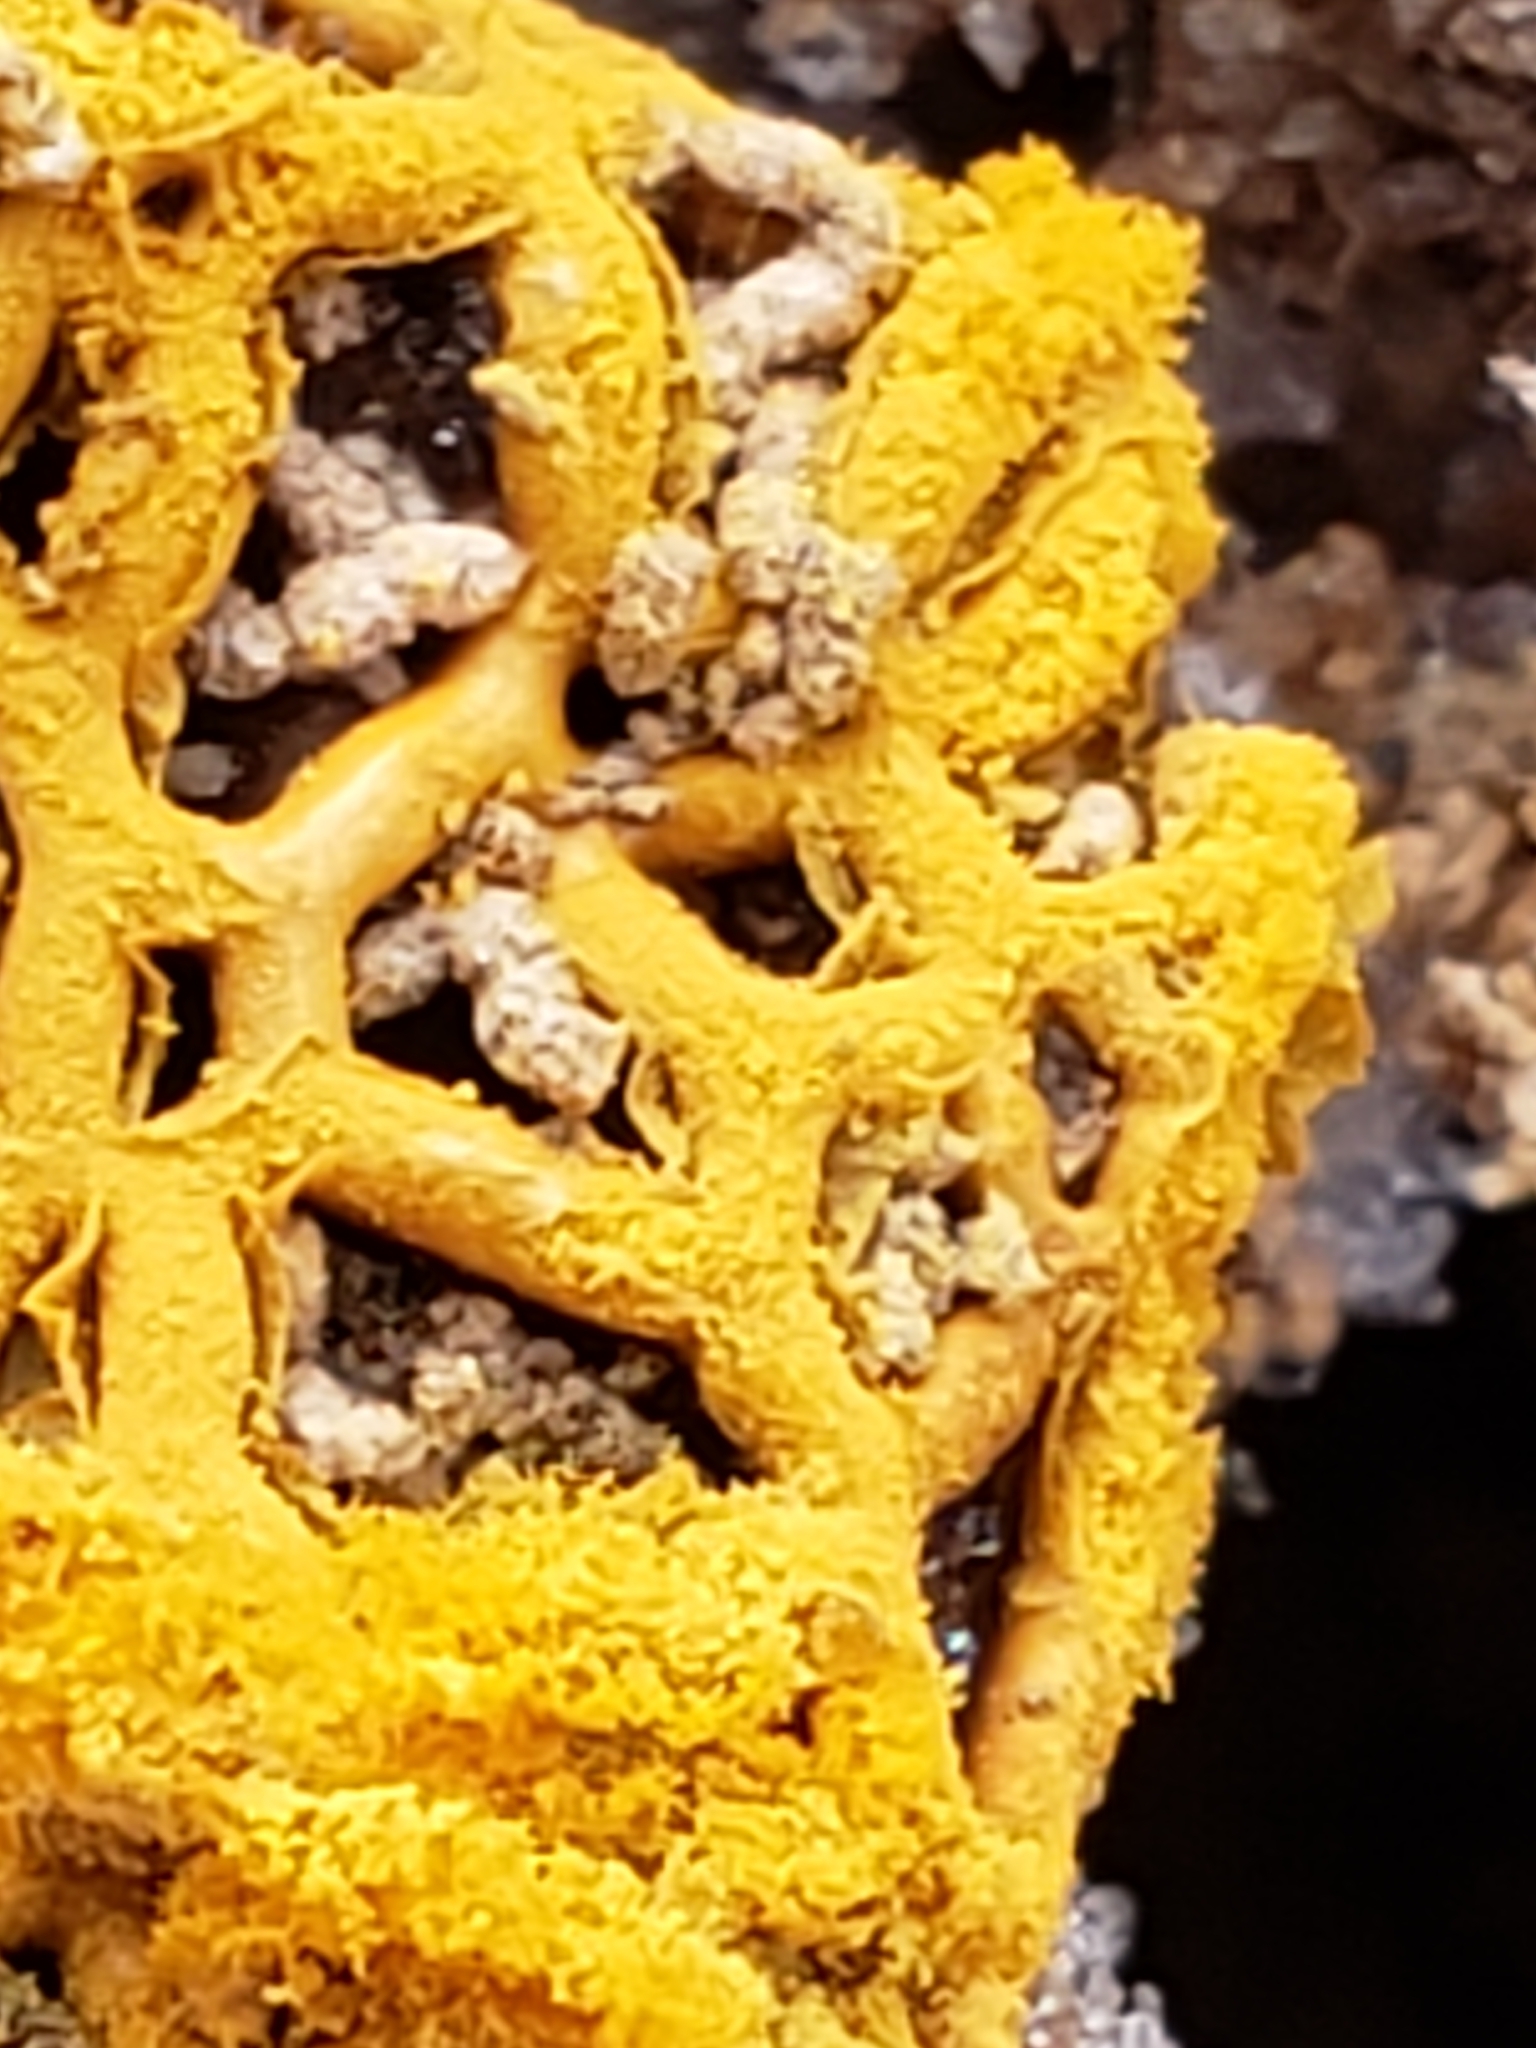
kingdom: Protozoa
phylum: Mycetozoa
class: Myxomycetes
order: Trichiales
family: Arcyriaceae
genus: Hemitrichia
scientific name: Hemitrichia serpula
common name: Pretzel slime mold
